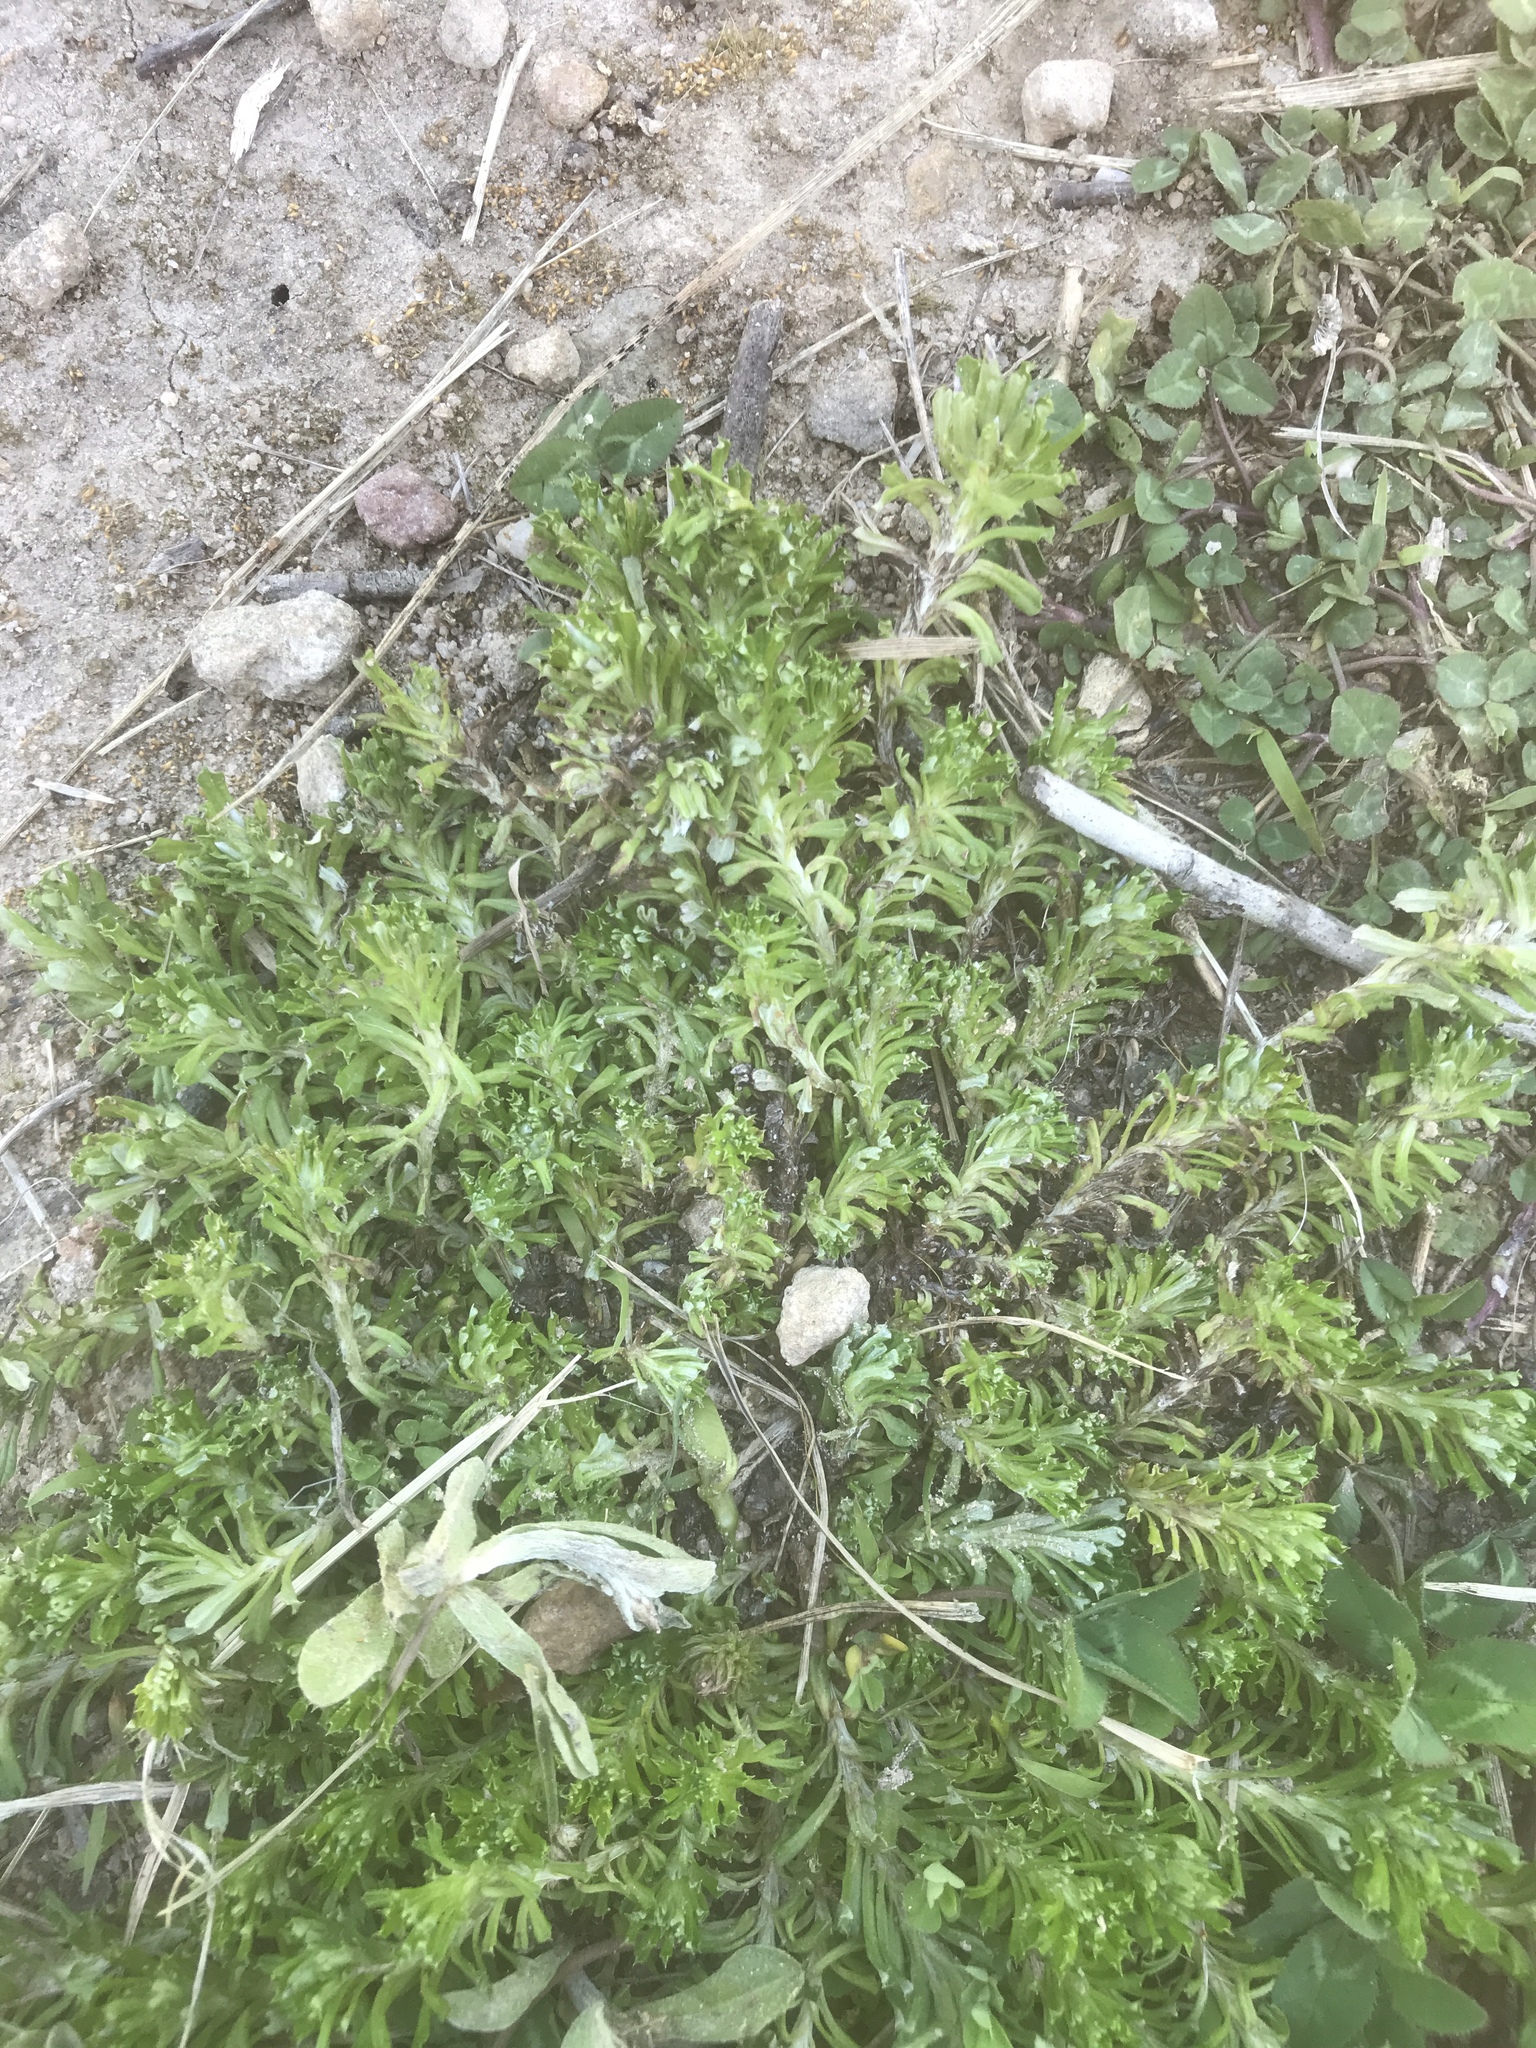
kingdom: Plantae
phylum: Tracheophyta
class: Magnoliopsida
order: Asterales
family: Asteraceae
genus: Facelis
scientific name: Facelis retusa
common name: Annual trampweed
